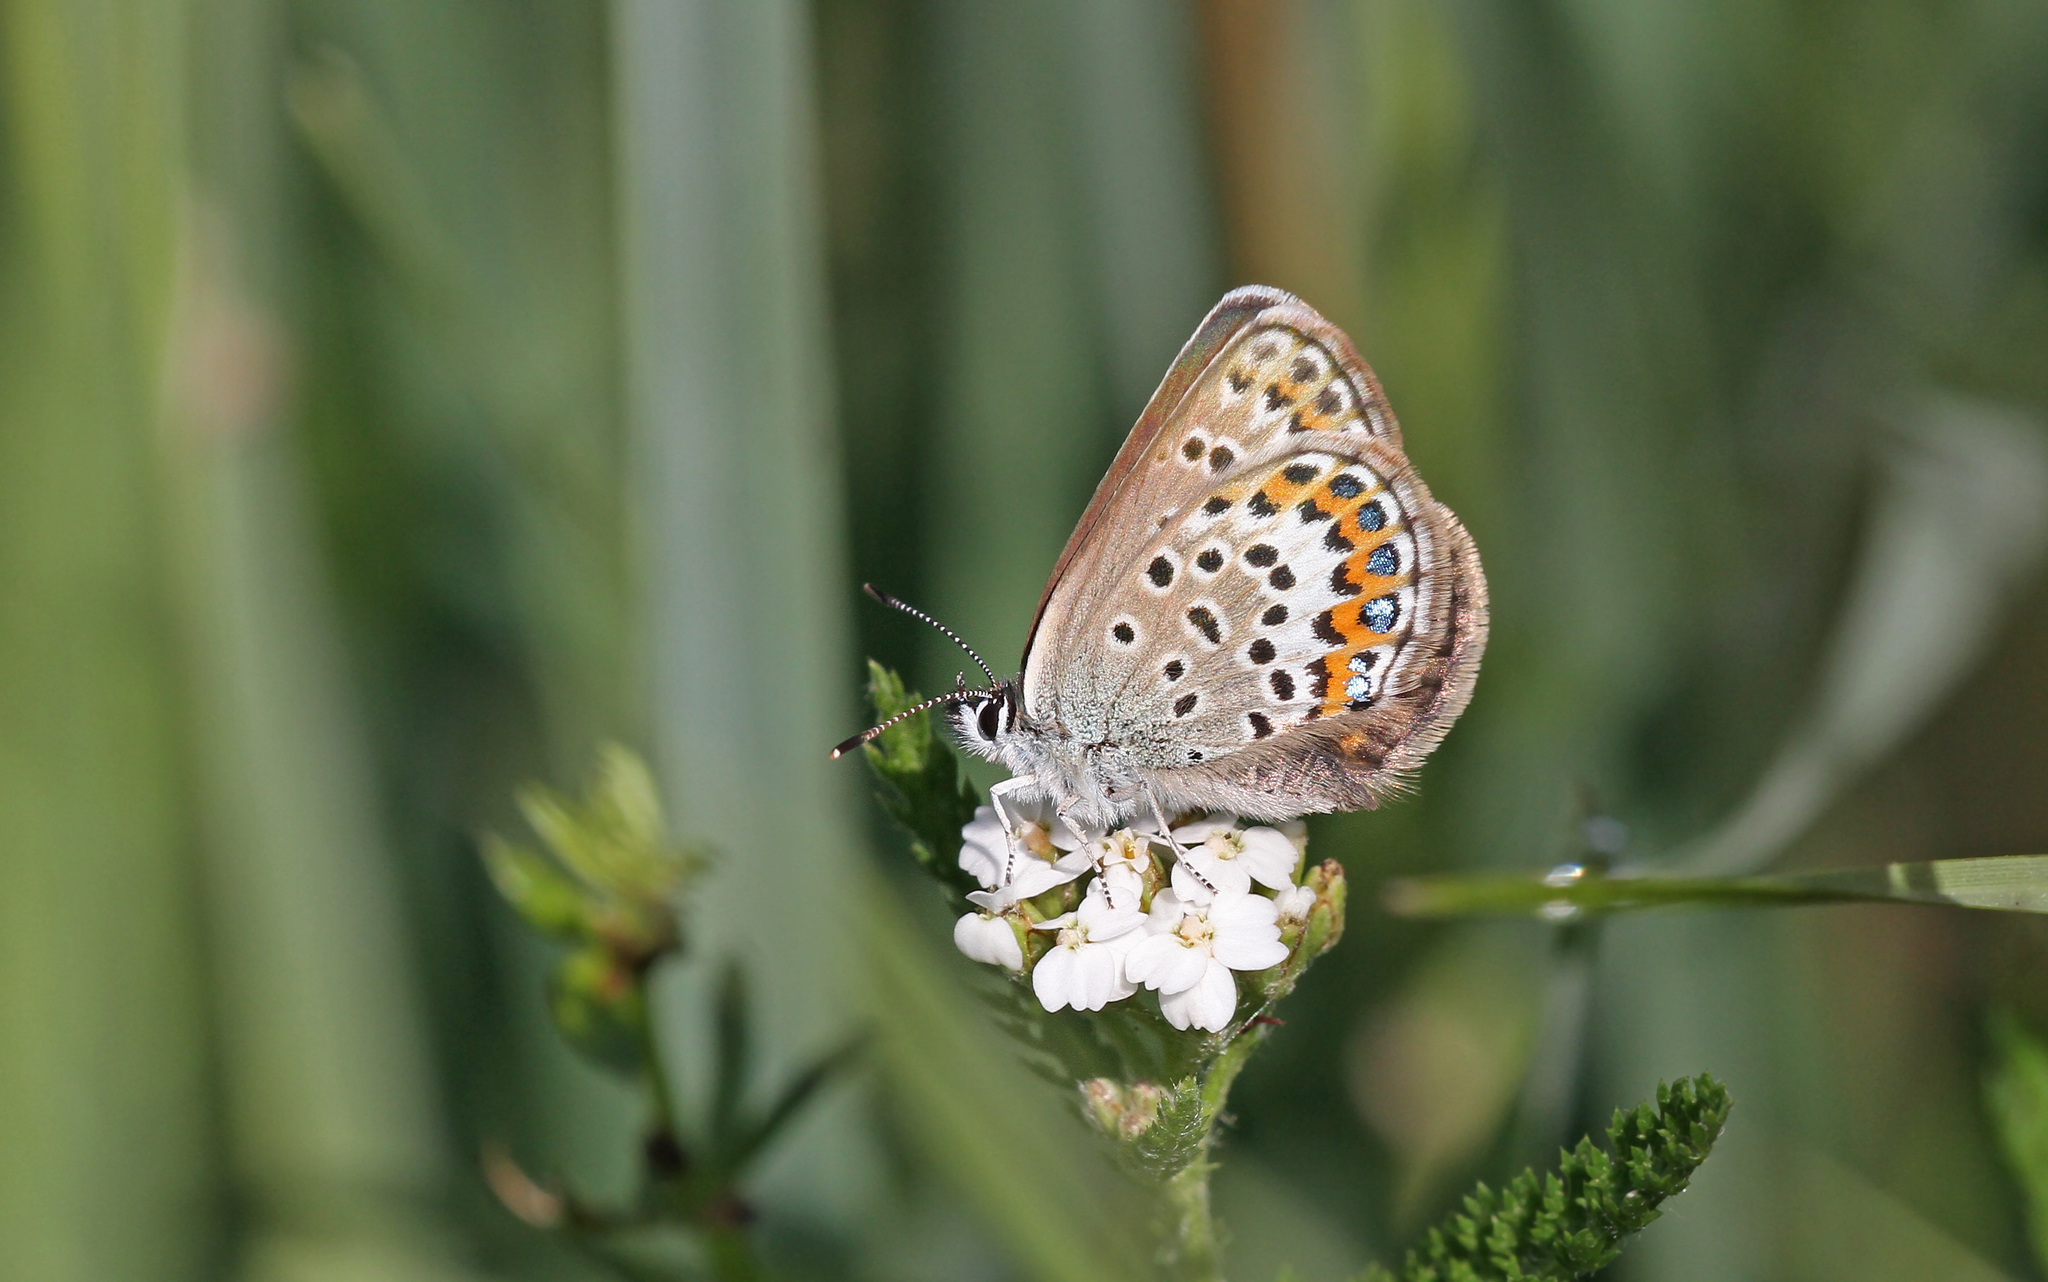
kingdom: Animalia
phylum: Arthropoda
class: Insecta
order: Lepidoptera
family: Lycaenidae
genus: Plebejus
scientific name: Plebejus argus
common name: Silver-studded blue
